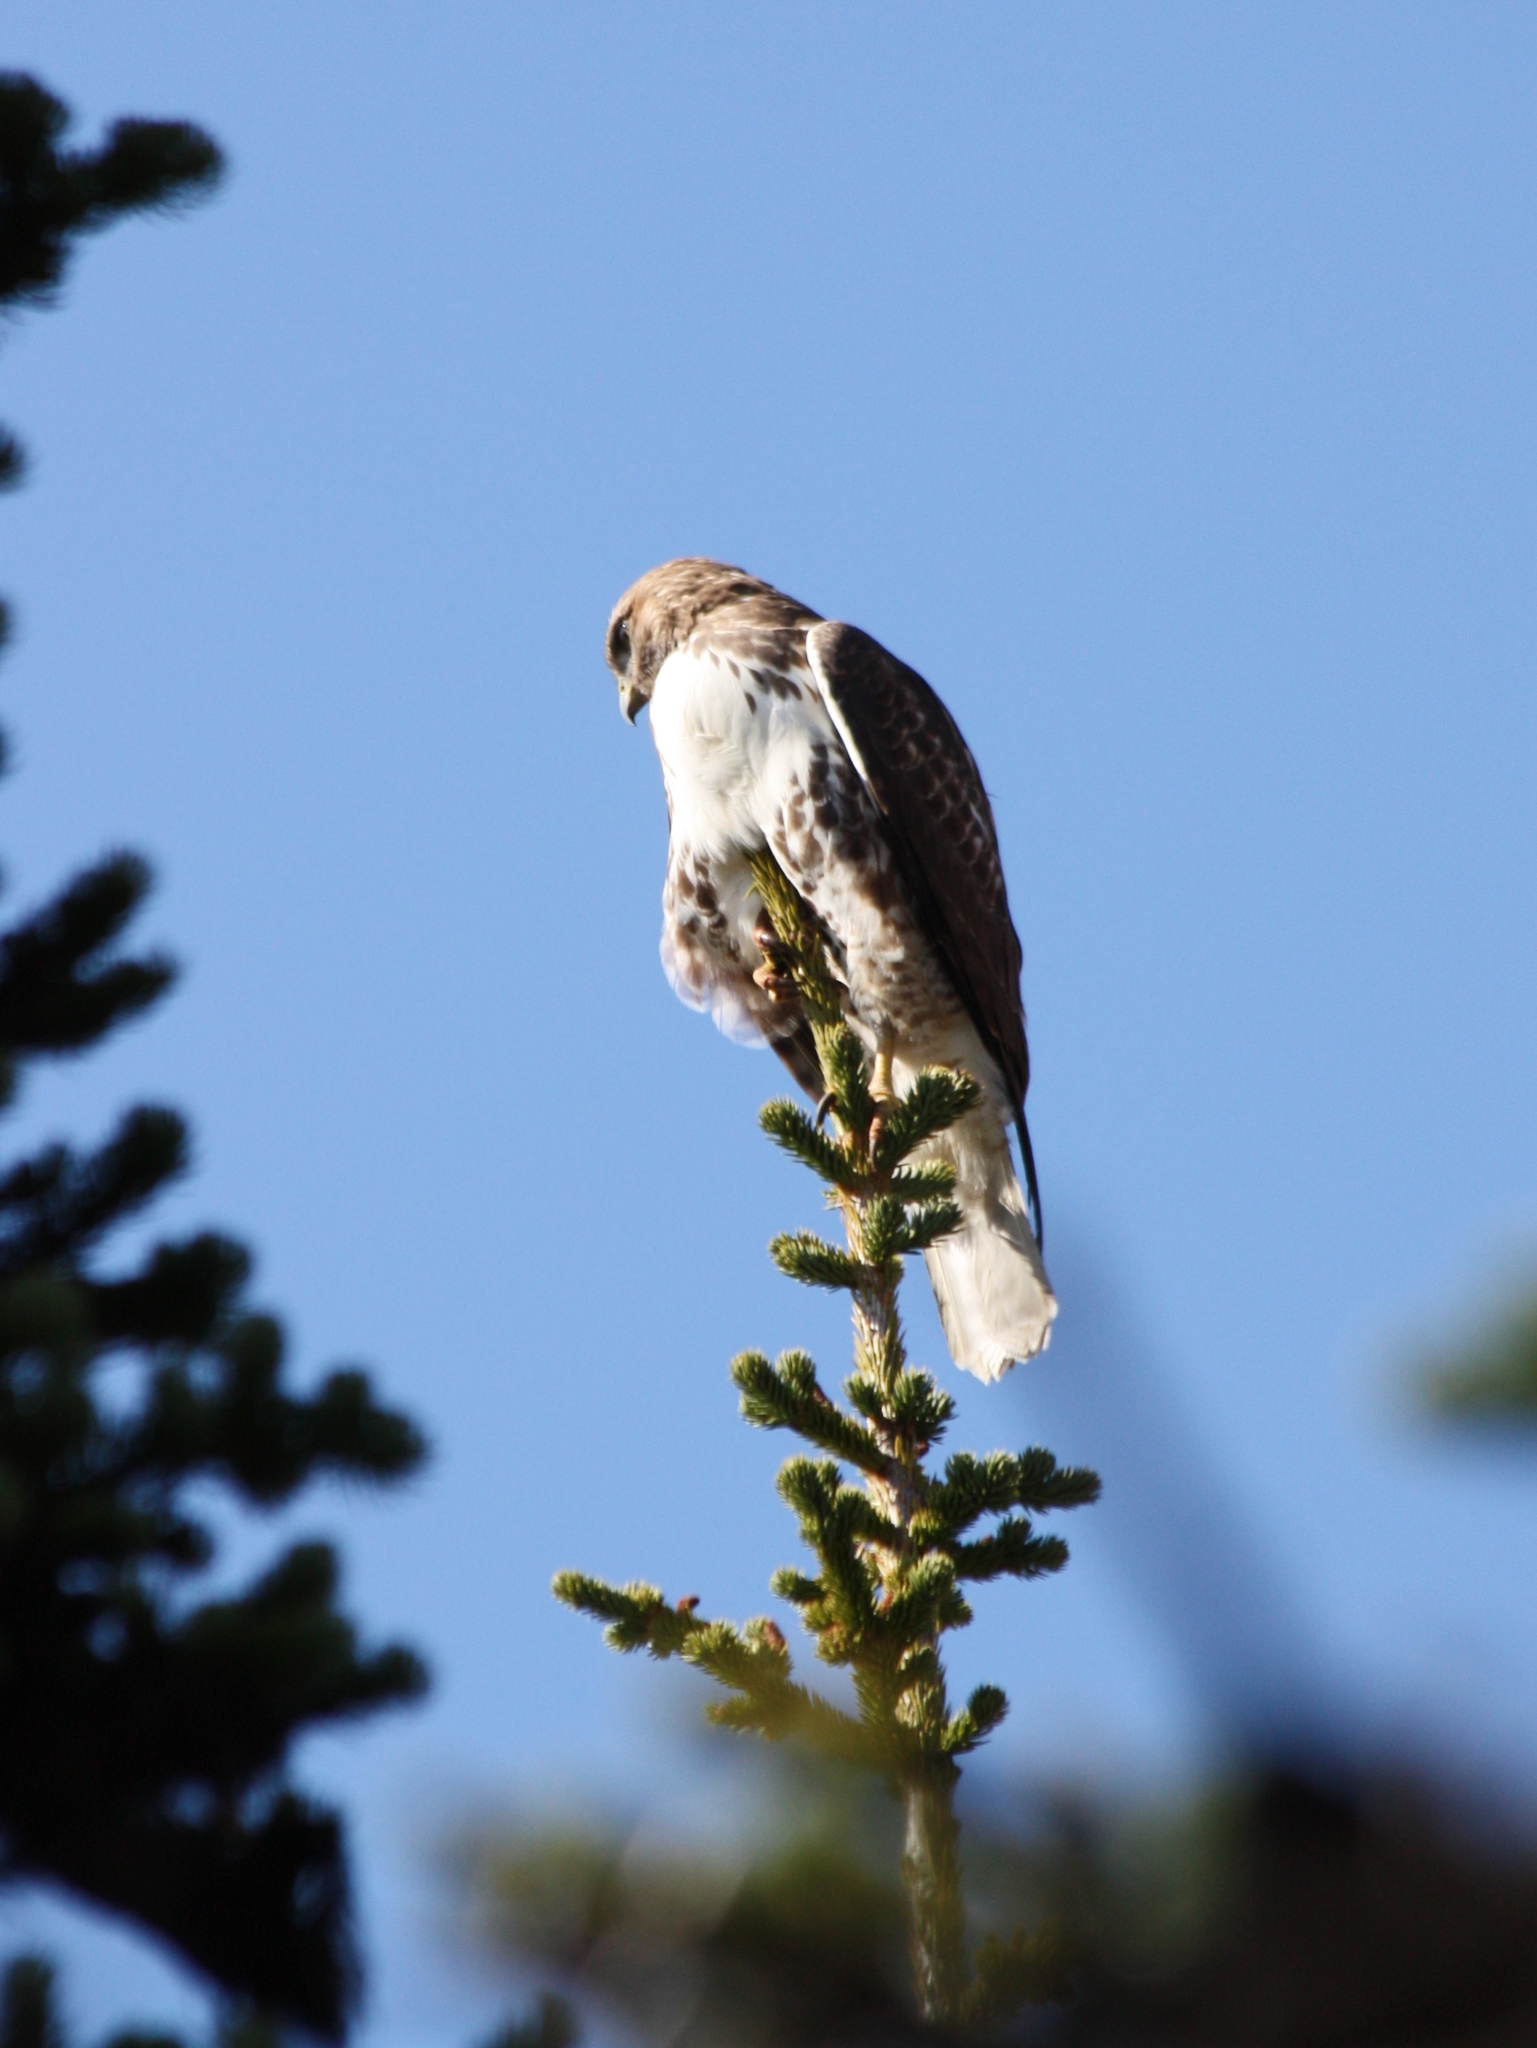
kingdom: Animalia
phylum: Chordata
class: Aves
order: Accipitriformes
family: Accipitridae
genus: Buteo
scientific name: Buteo jamaicensis
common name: Red-tailed hawk
